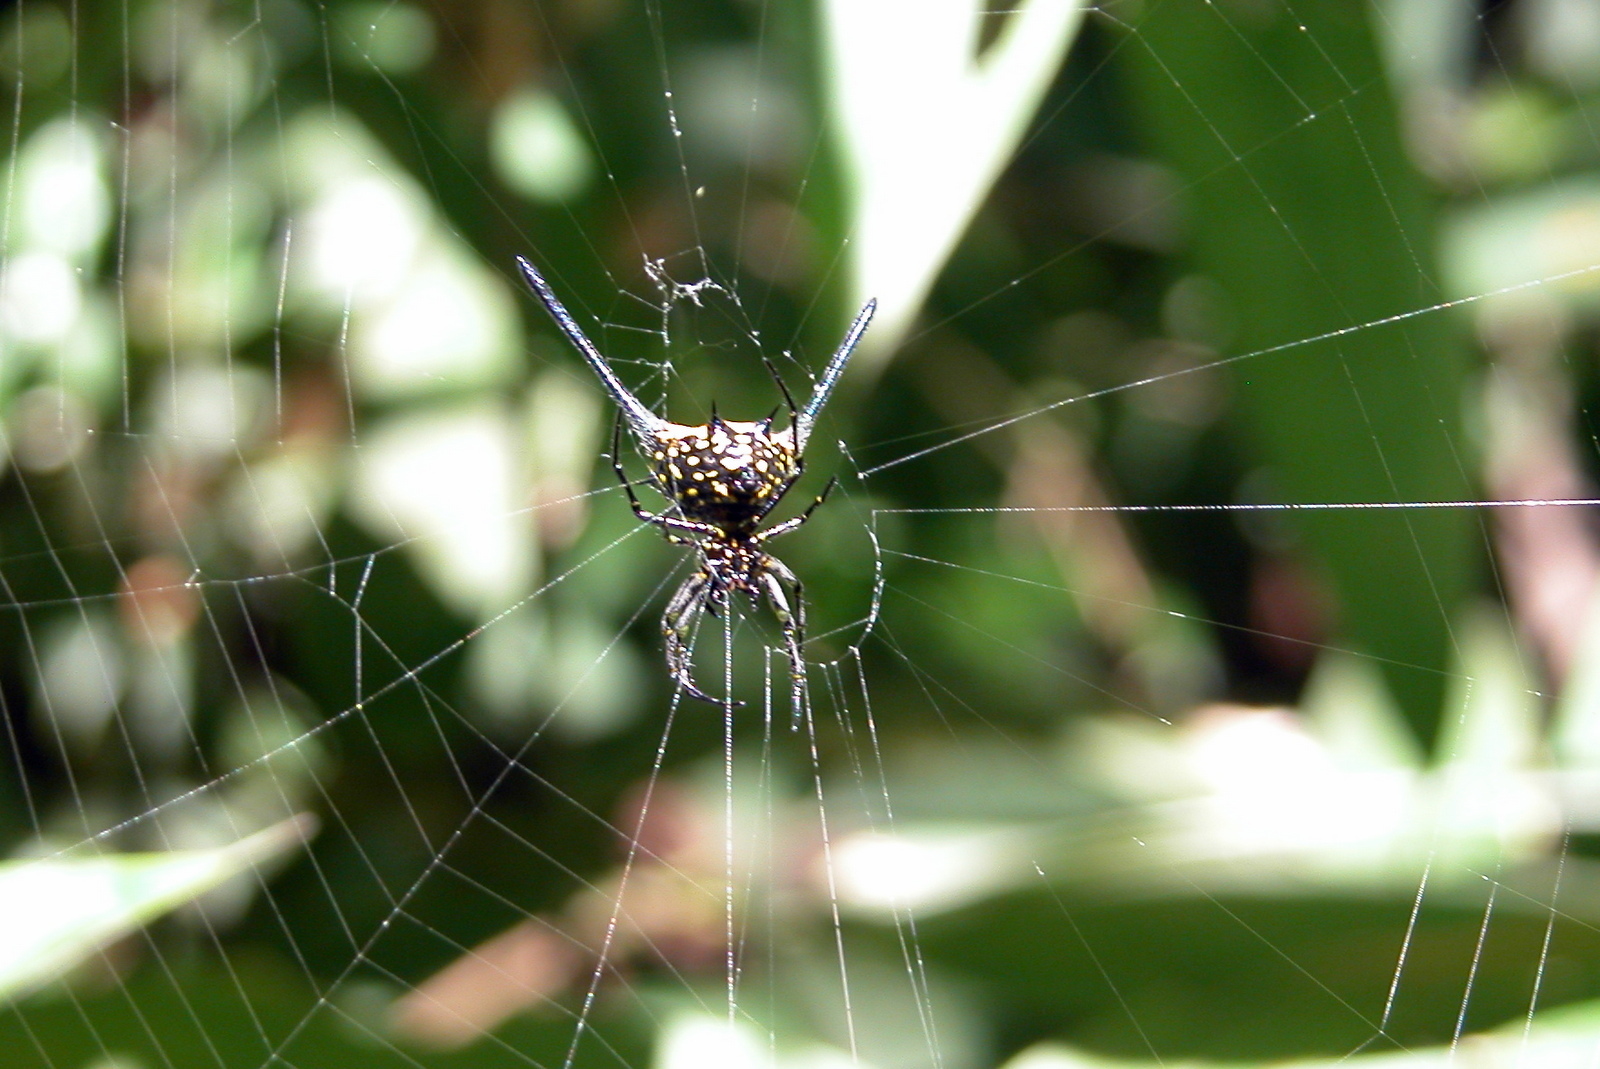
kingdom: Animalia
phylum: Arthropoda
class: Arachnida
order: Araneae
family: Araneidae
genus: Gasteracantha
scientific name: Gasteracantha dalyi
